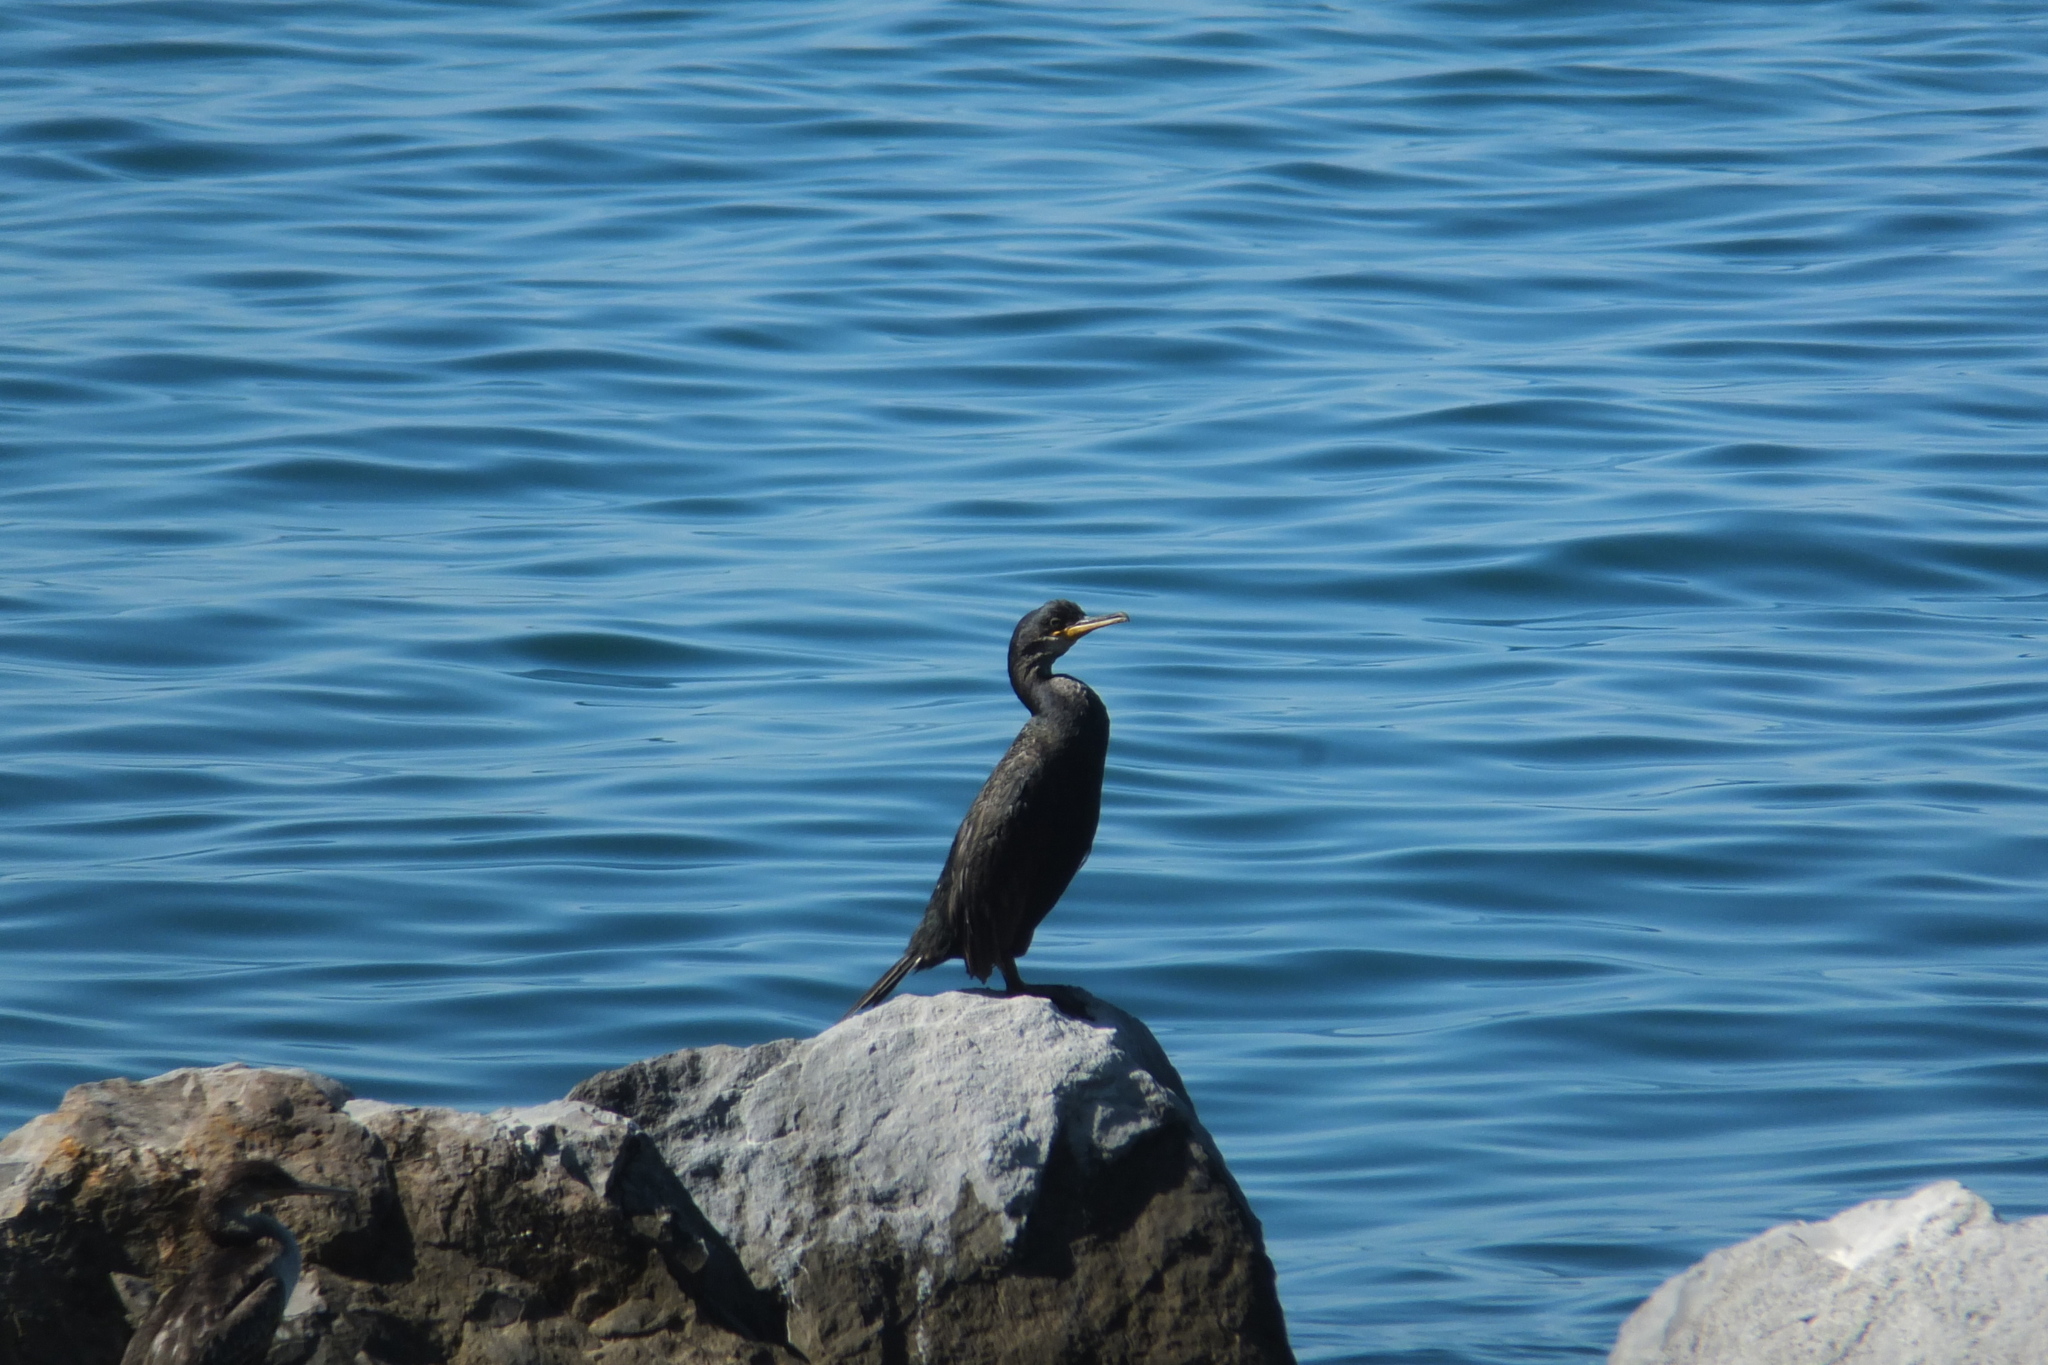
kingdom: Animalia
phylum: Chordata
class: Aves
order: Suliformes
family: Phalacrocoracidae
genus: Phalacrocorax
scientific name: Phalacrocorax aristotelis
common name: European shag
